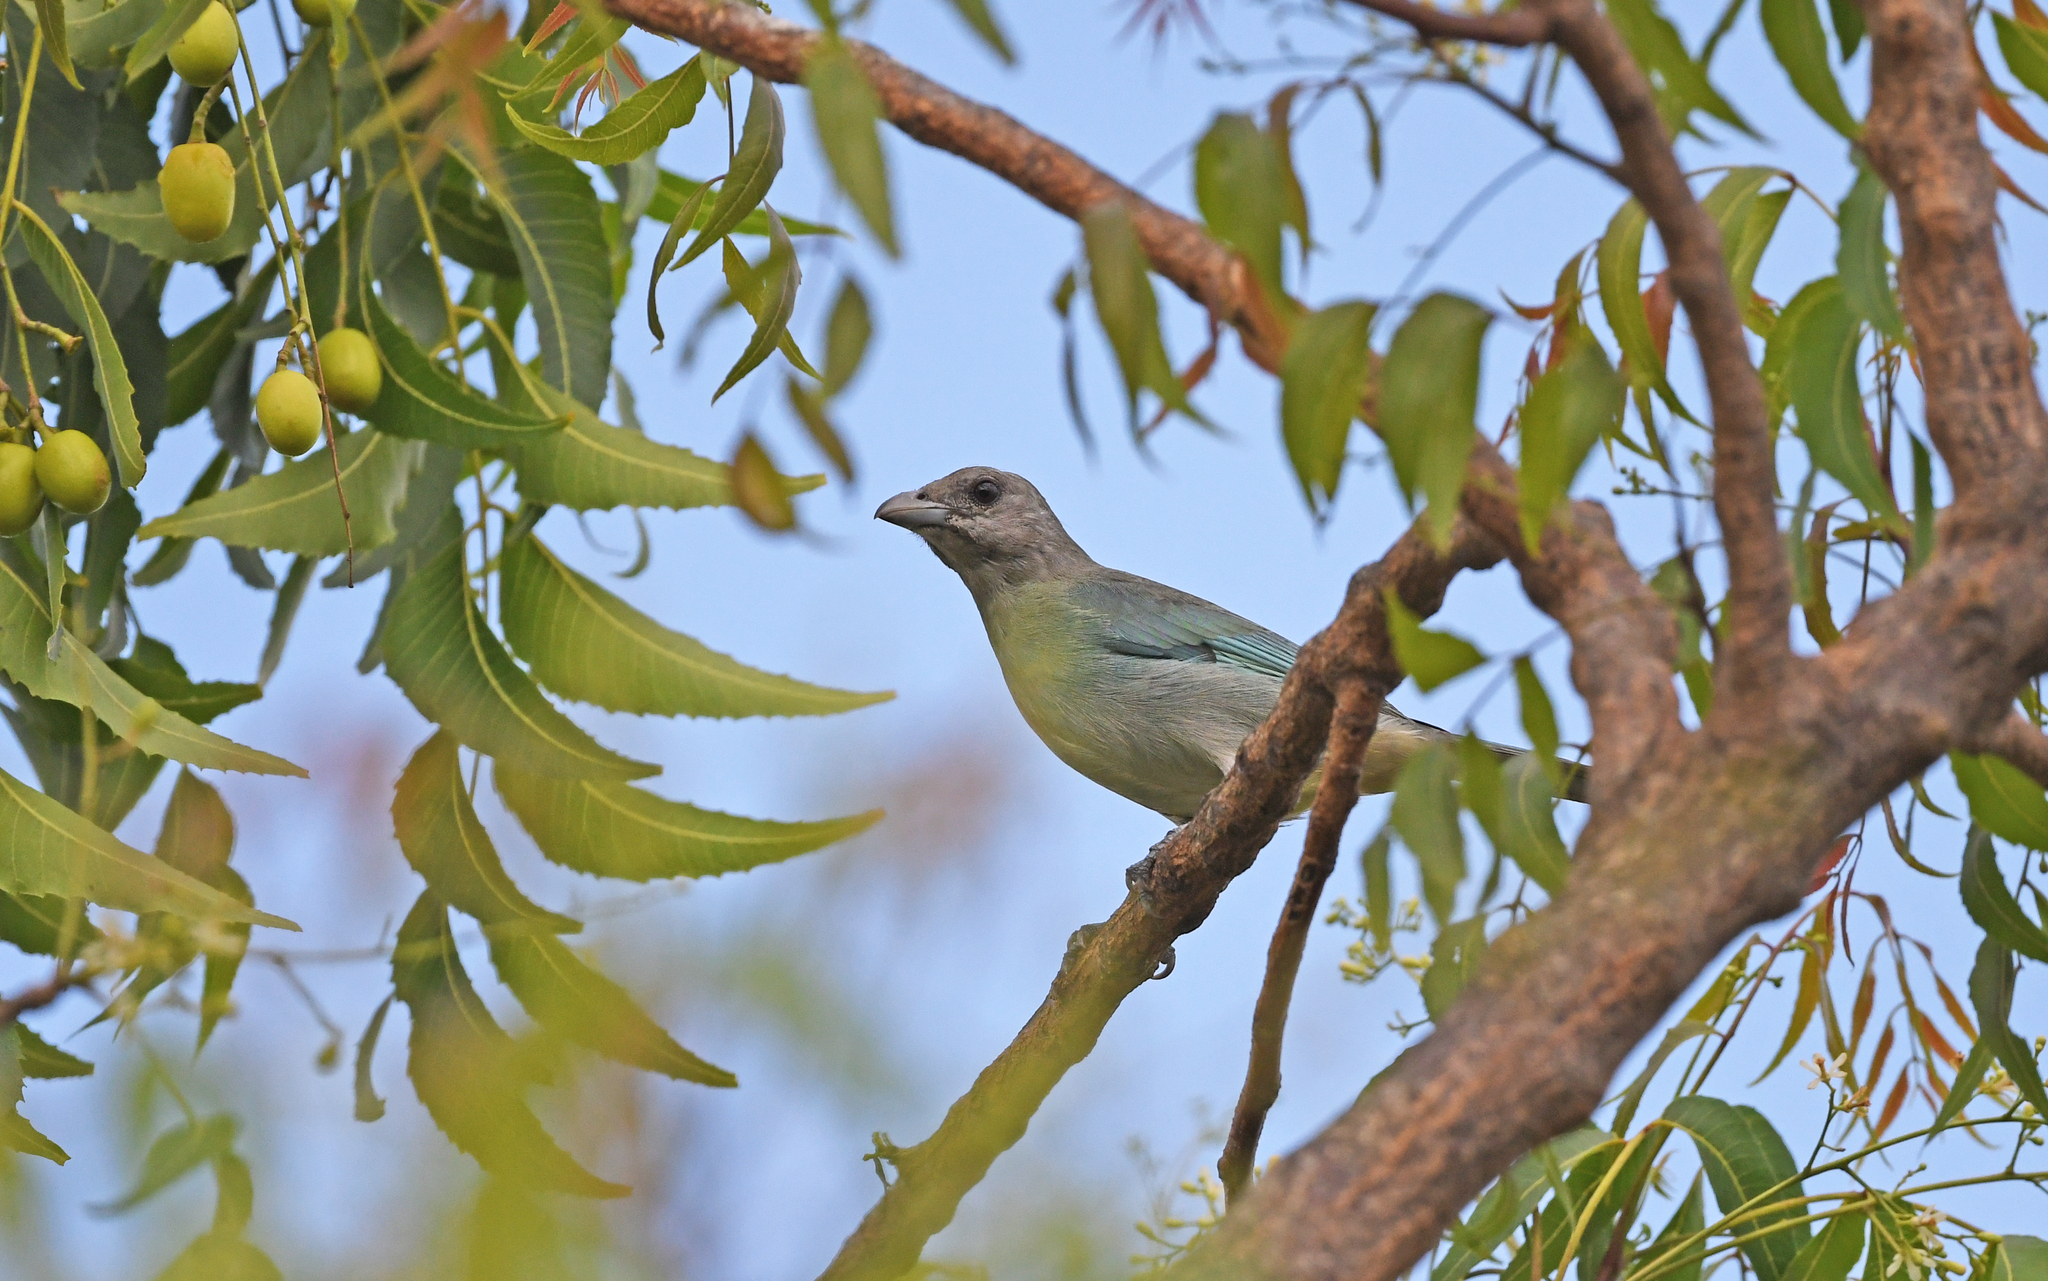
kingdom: Animalia
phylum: Chordata
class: Aves
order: Passeriformes
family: Thraupidae
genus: Thraupis
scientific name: Thraupis glaucocolpa
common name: Glaucous tanager
